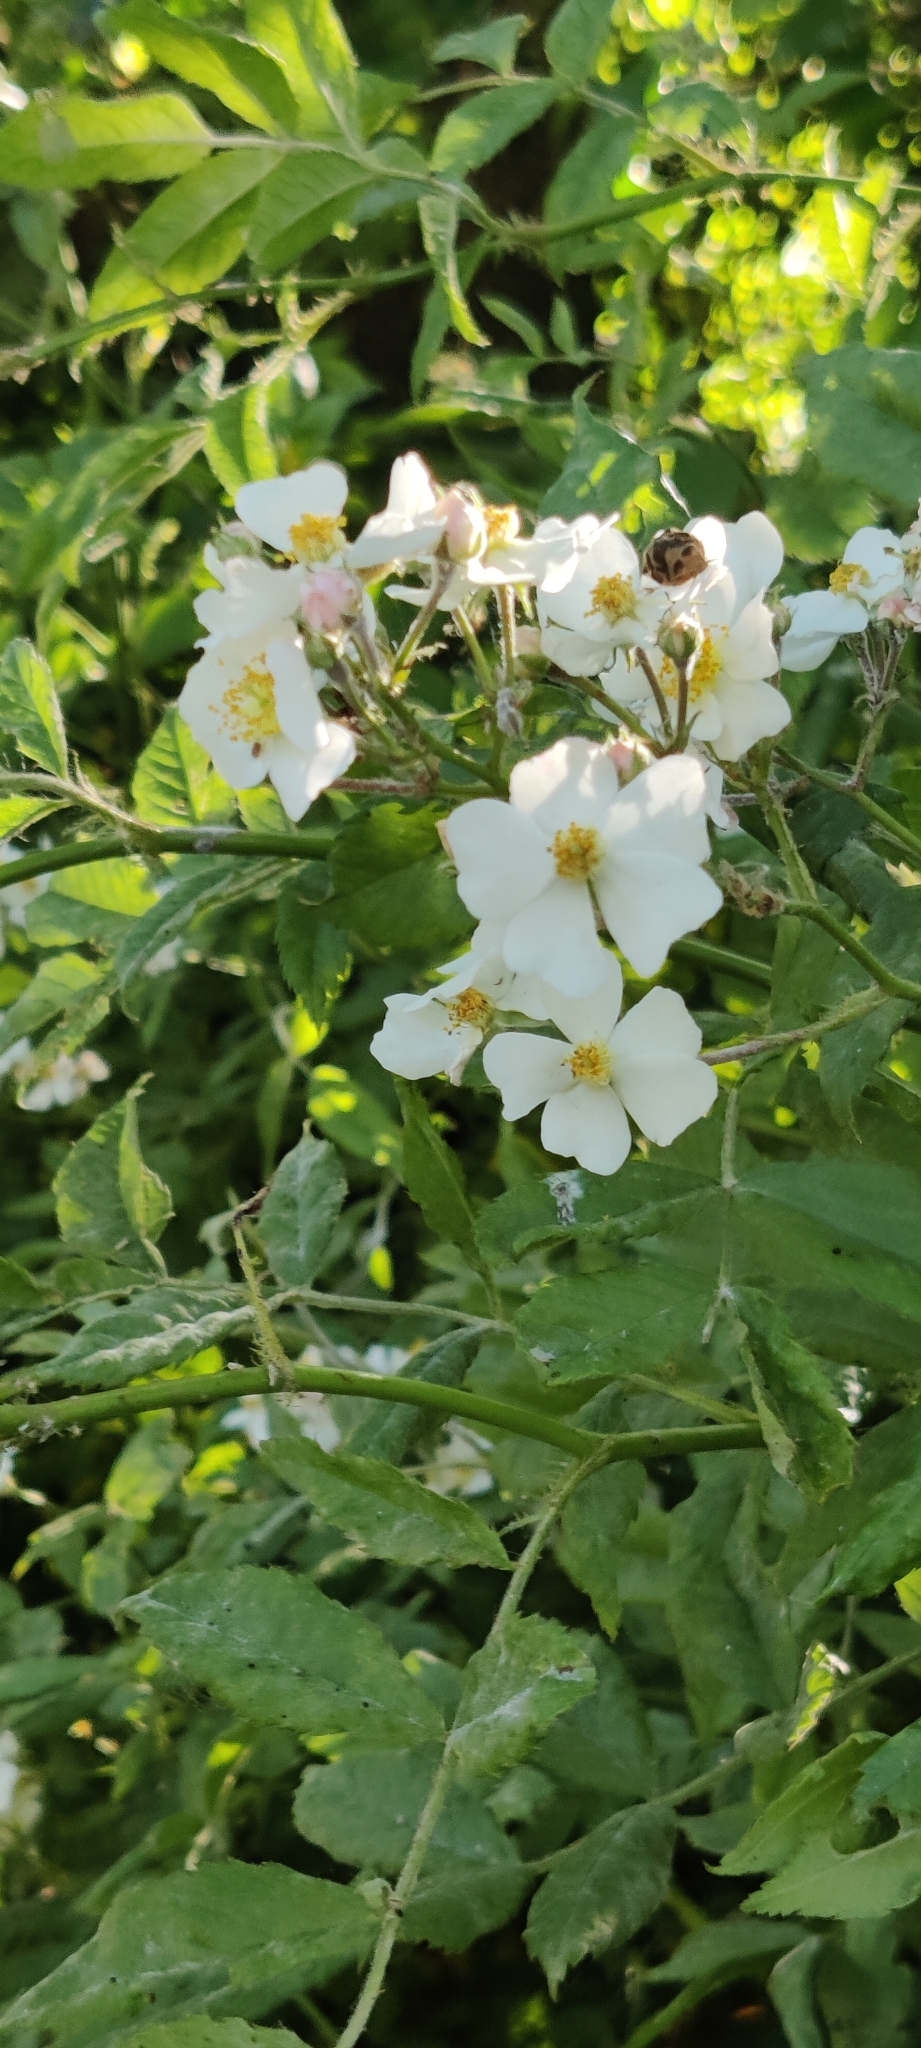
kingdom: Plantae
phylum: Tracheophyta
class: Magnoliopsida
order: Rosales
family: Rosaceae
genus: Rosa
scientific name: Rosa multiflora
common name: Multiflora rose
